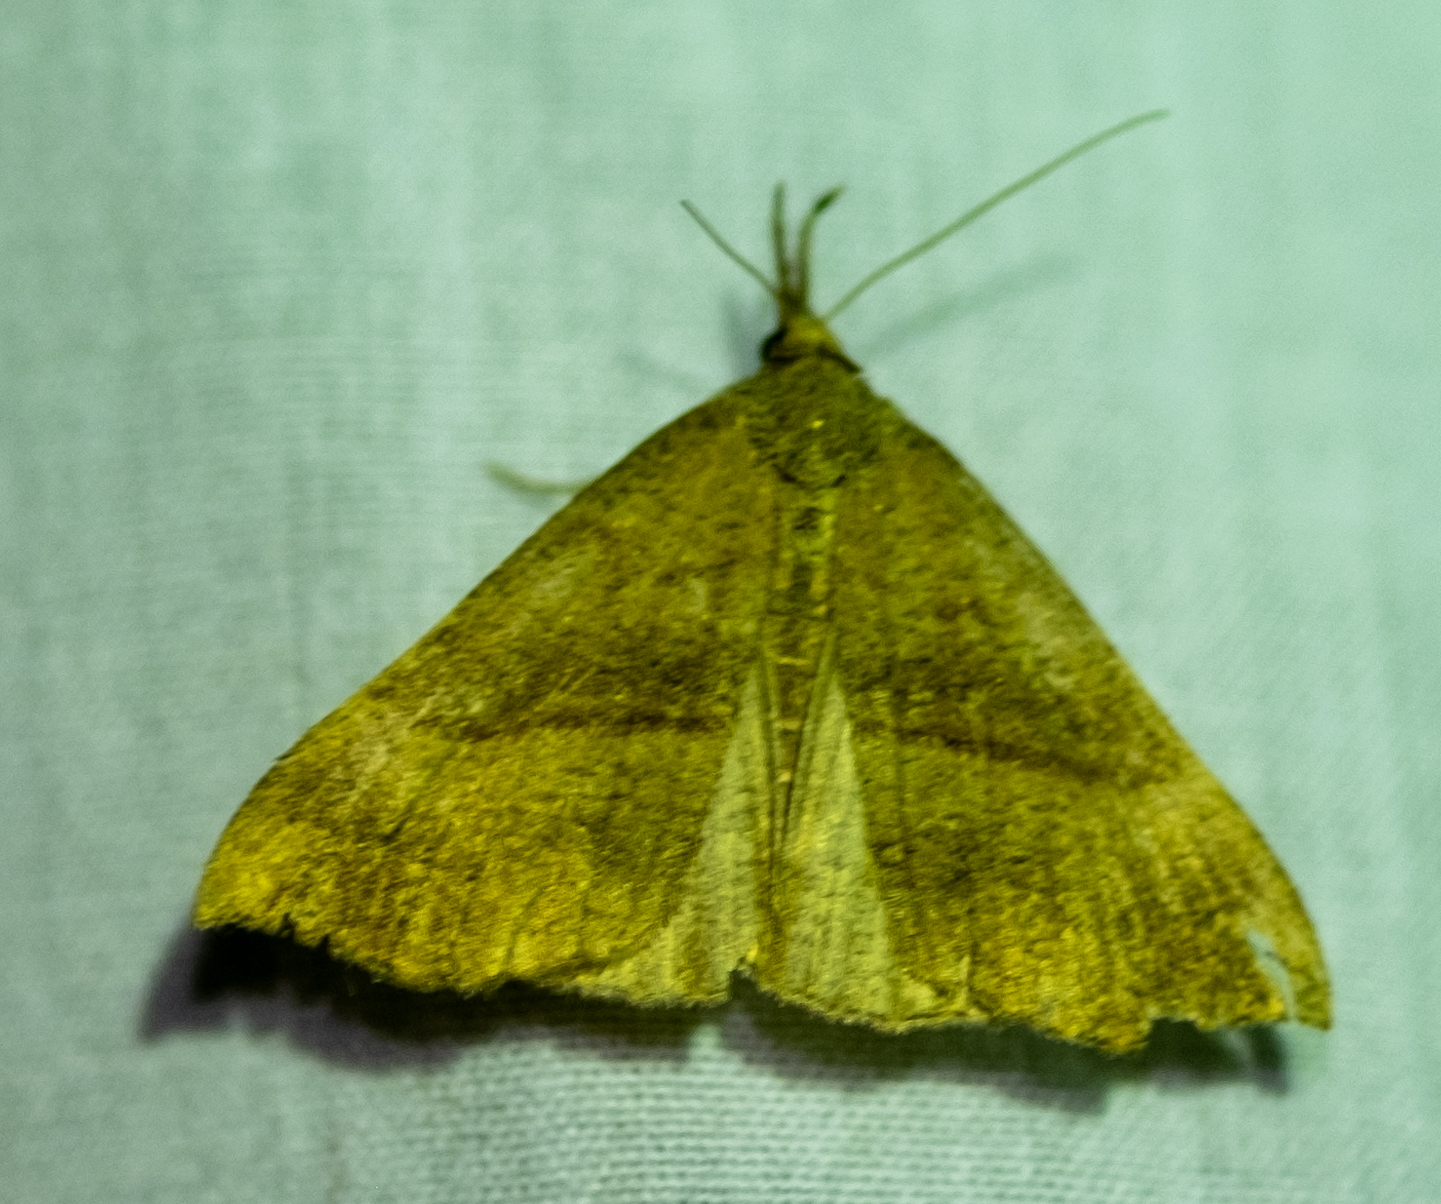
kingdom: Animalia
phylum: Arthropoda
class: Insecta
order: Lepidoptera
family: Erebidae
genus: Hypena
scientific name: Hypena proboscidalis
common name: Snout
